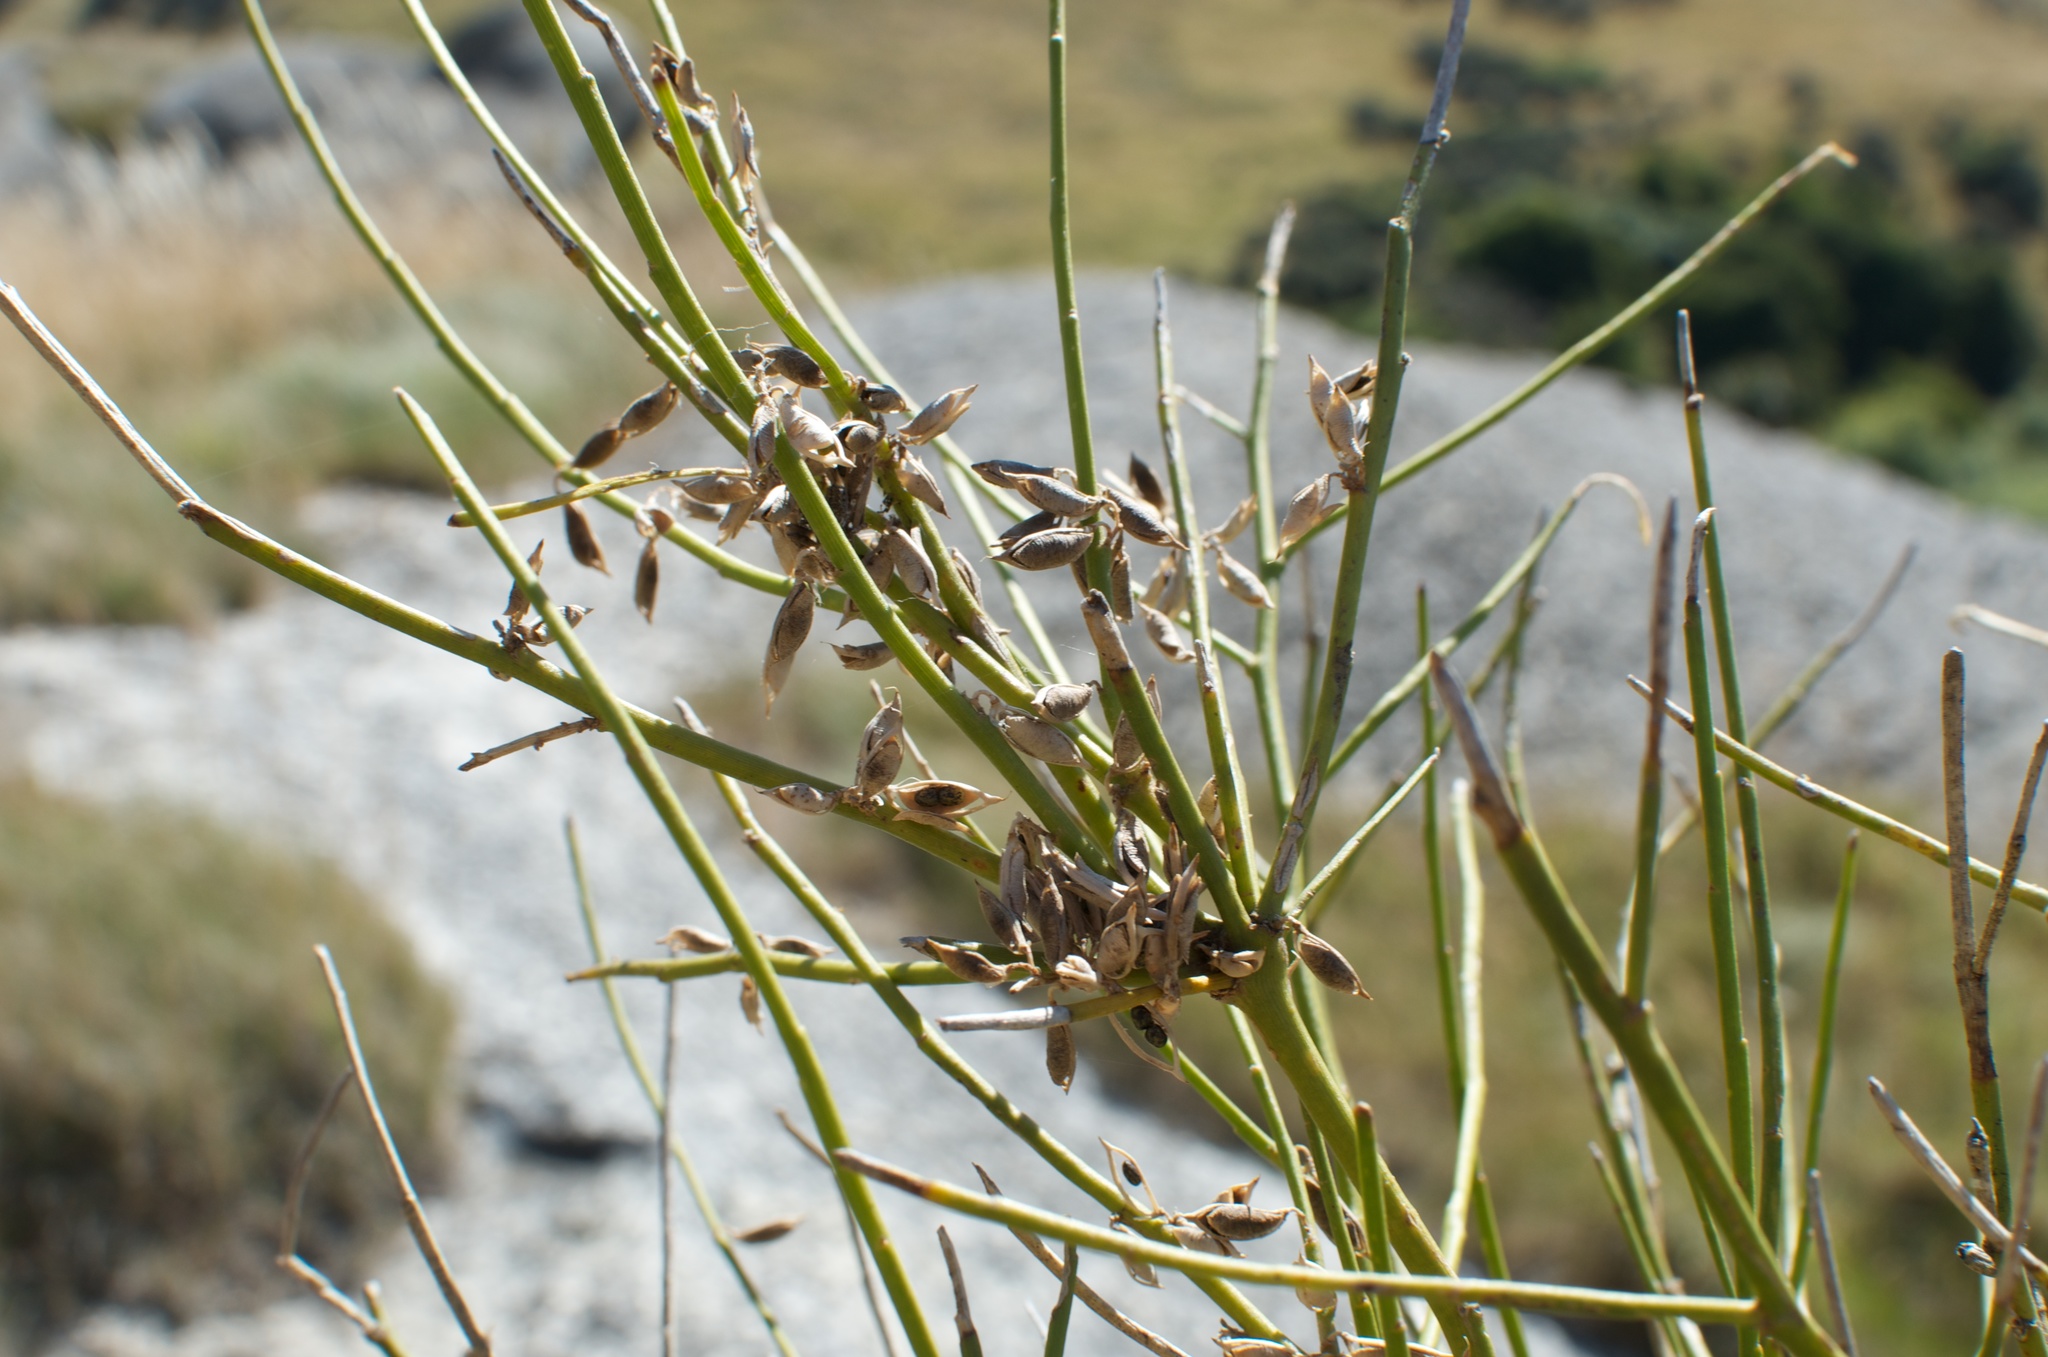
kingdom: Plantae
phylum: Tracheophyta
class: Magnoliopsida
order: Fabales
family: Fabaceae
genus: Carmichaelia
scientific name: Carmichaelia australis
